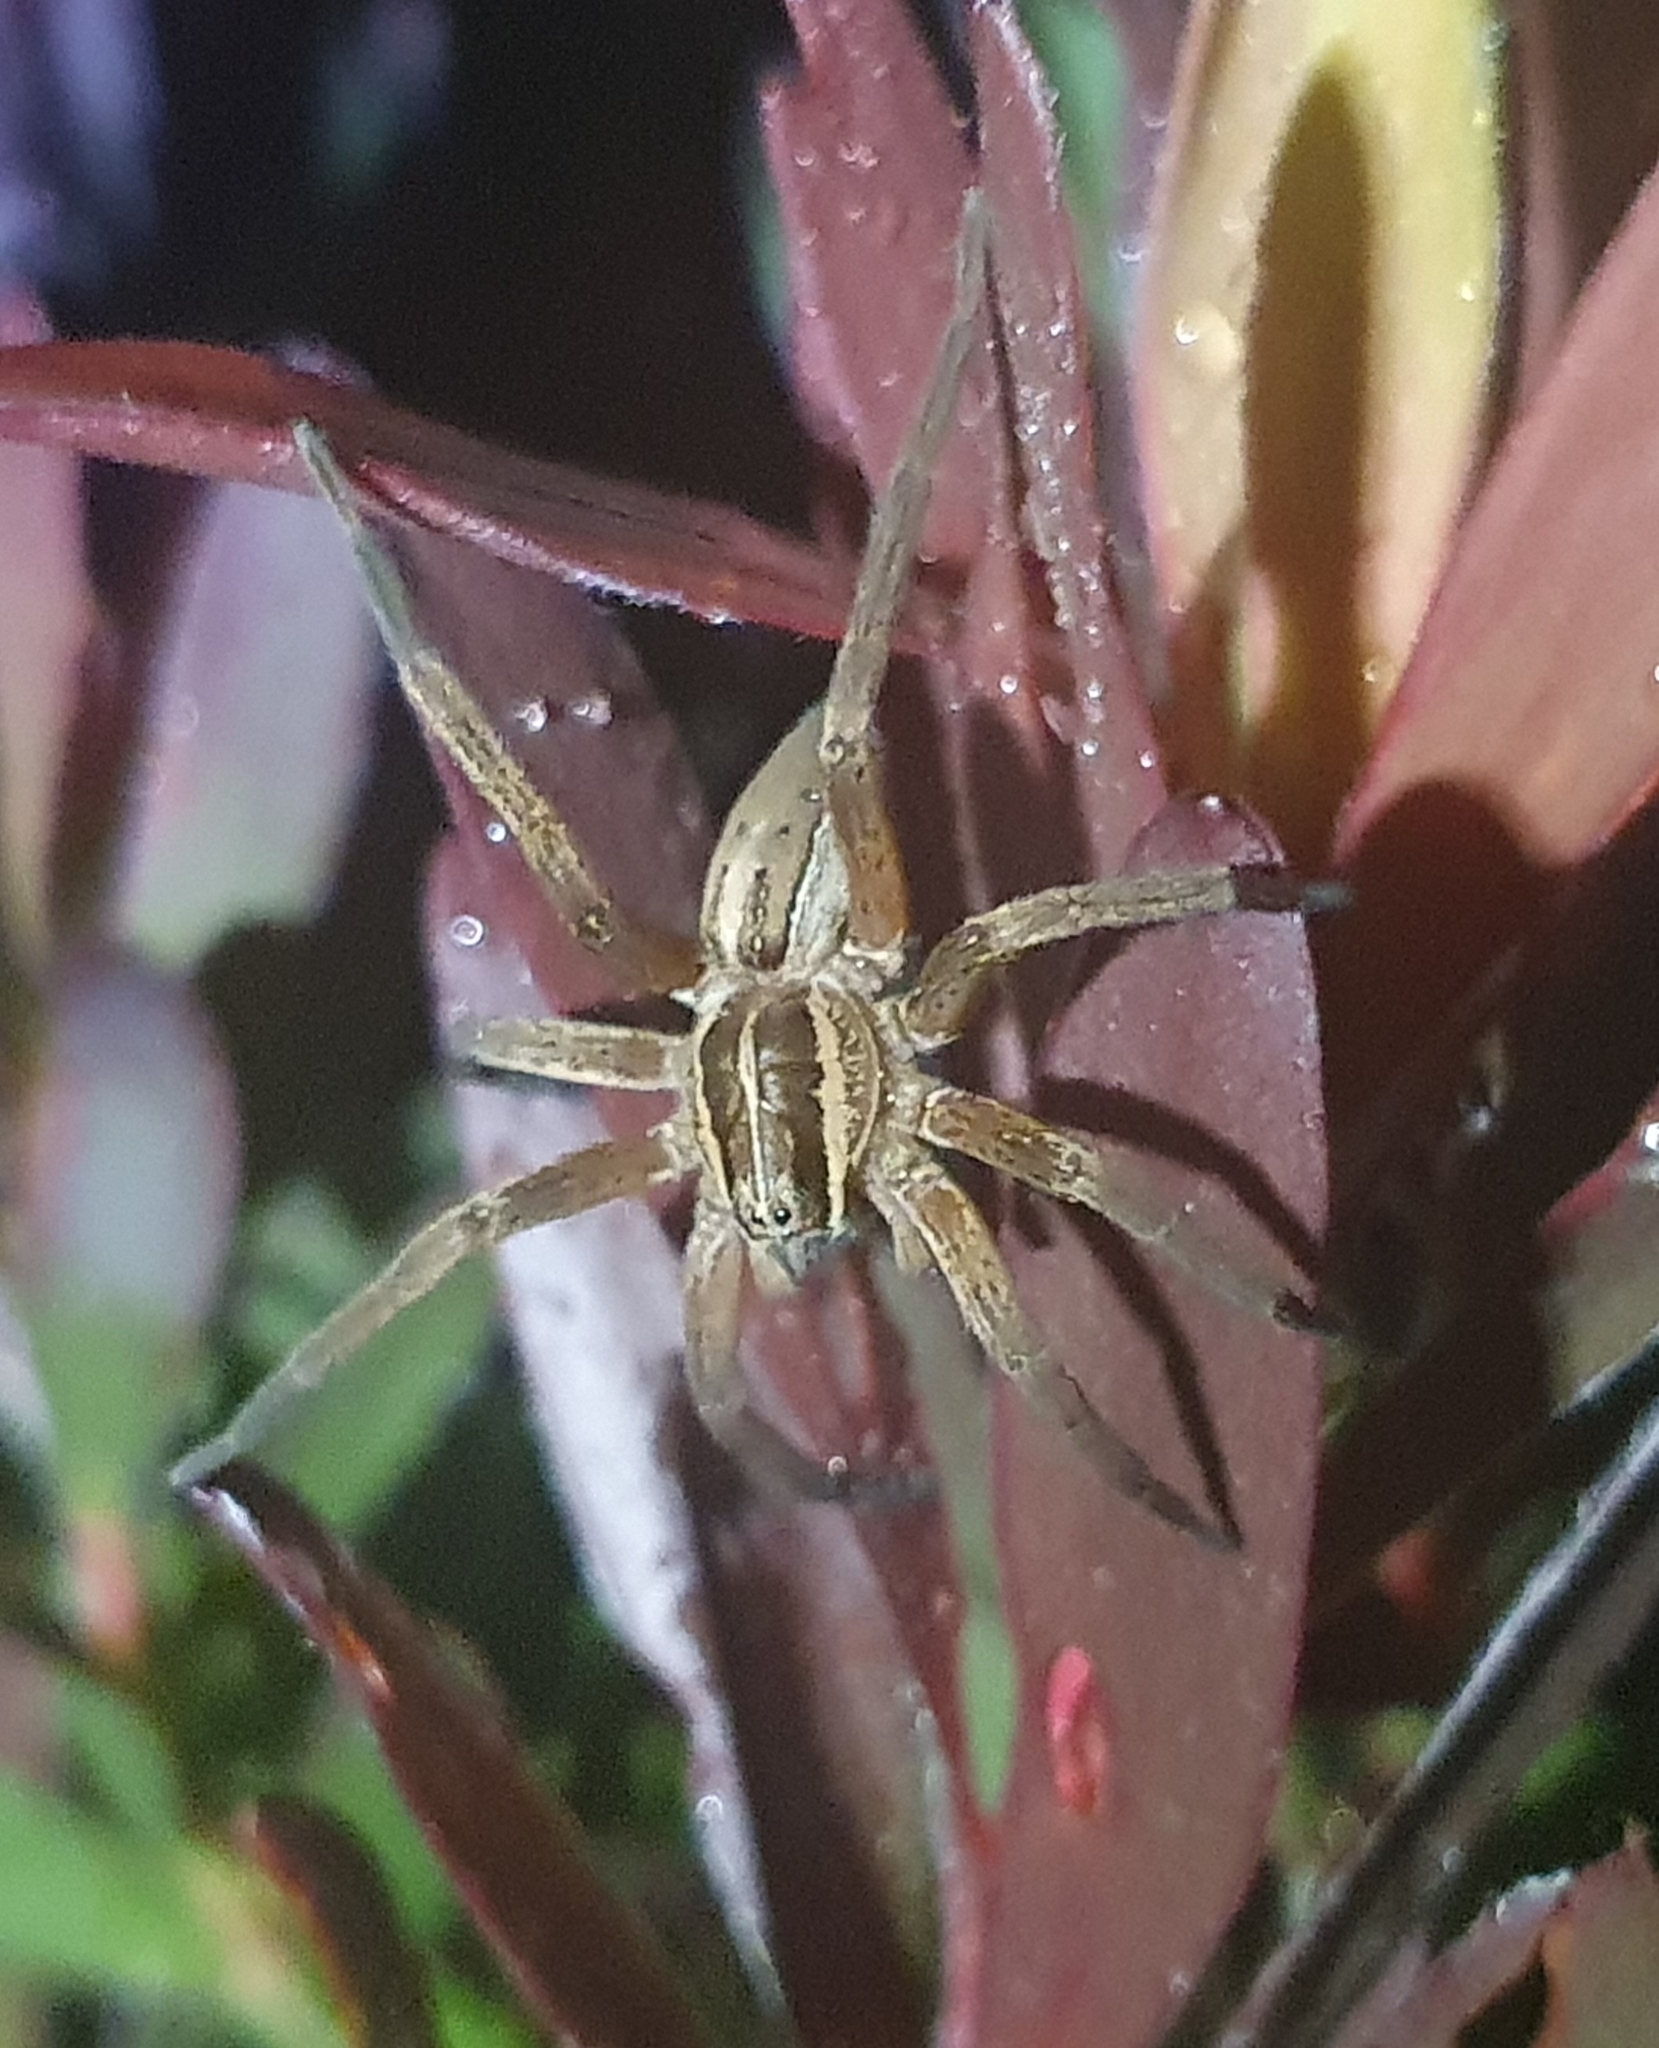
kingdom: Animalia
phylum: Arthropoda
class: Arachnida
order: Araneae
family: Pisauridae
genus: Dolomedes
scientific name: Dolomedes minor
